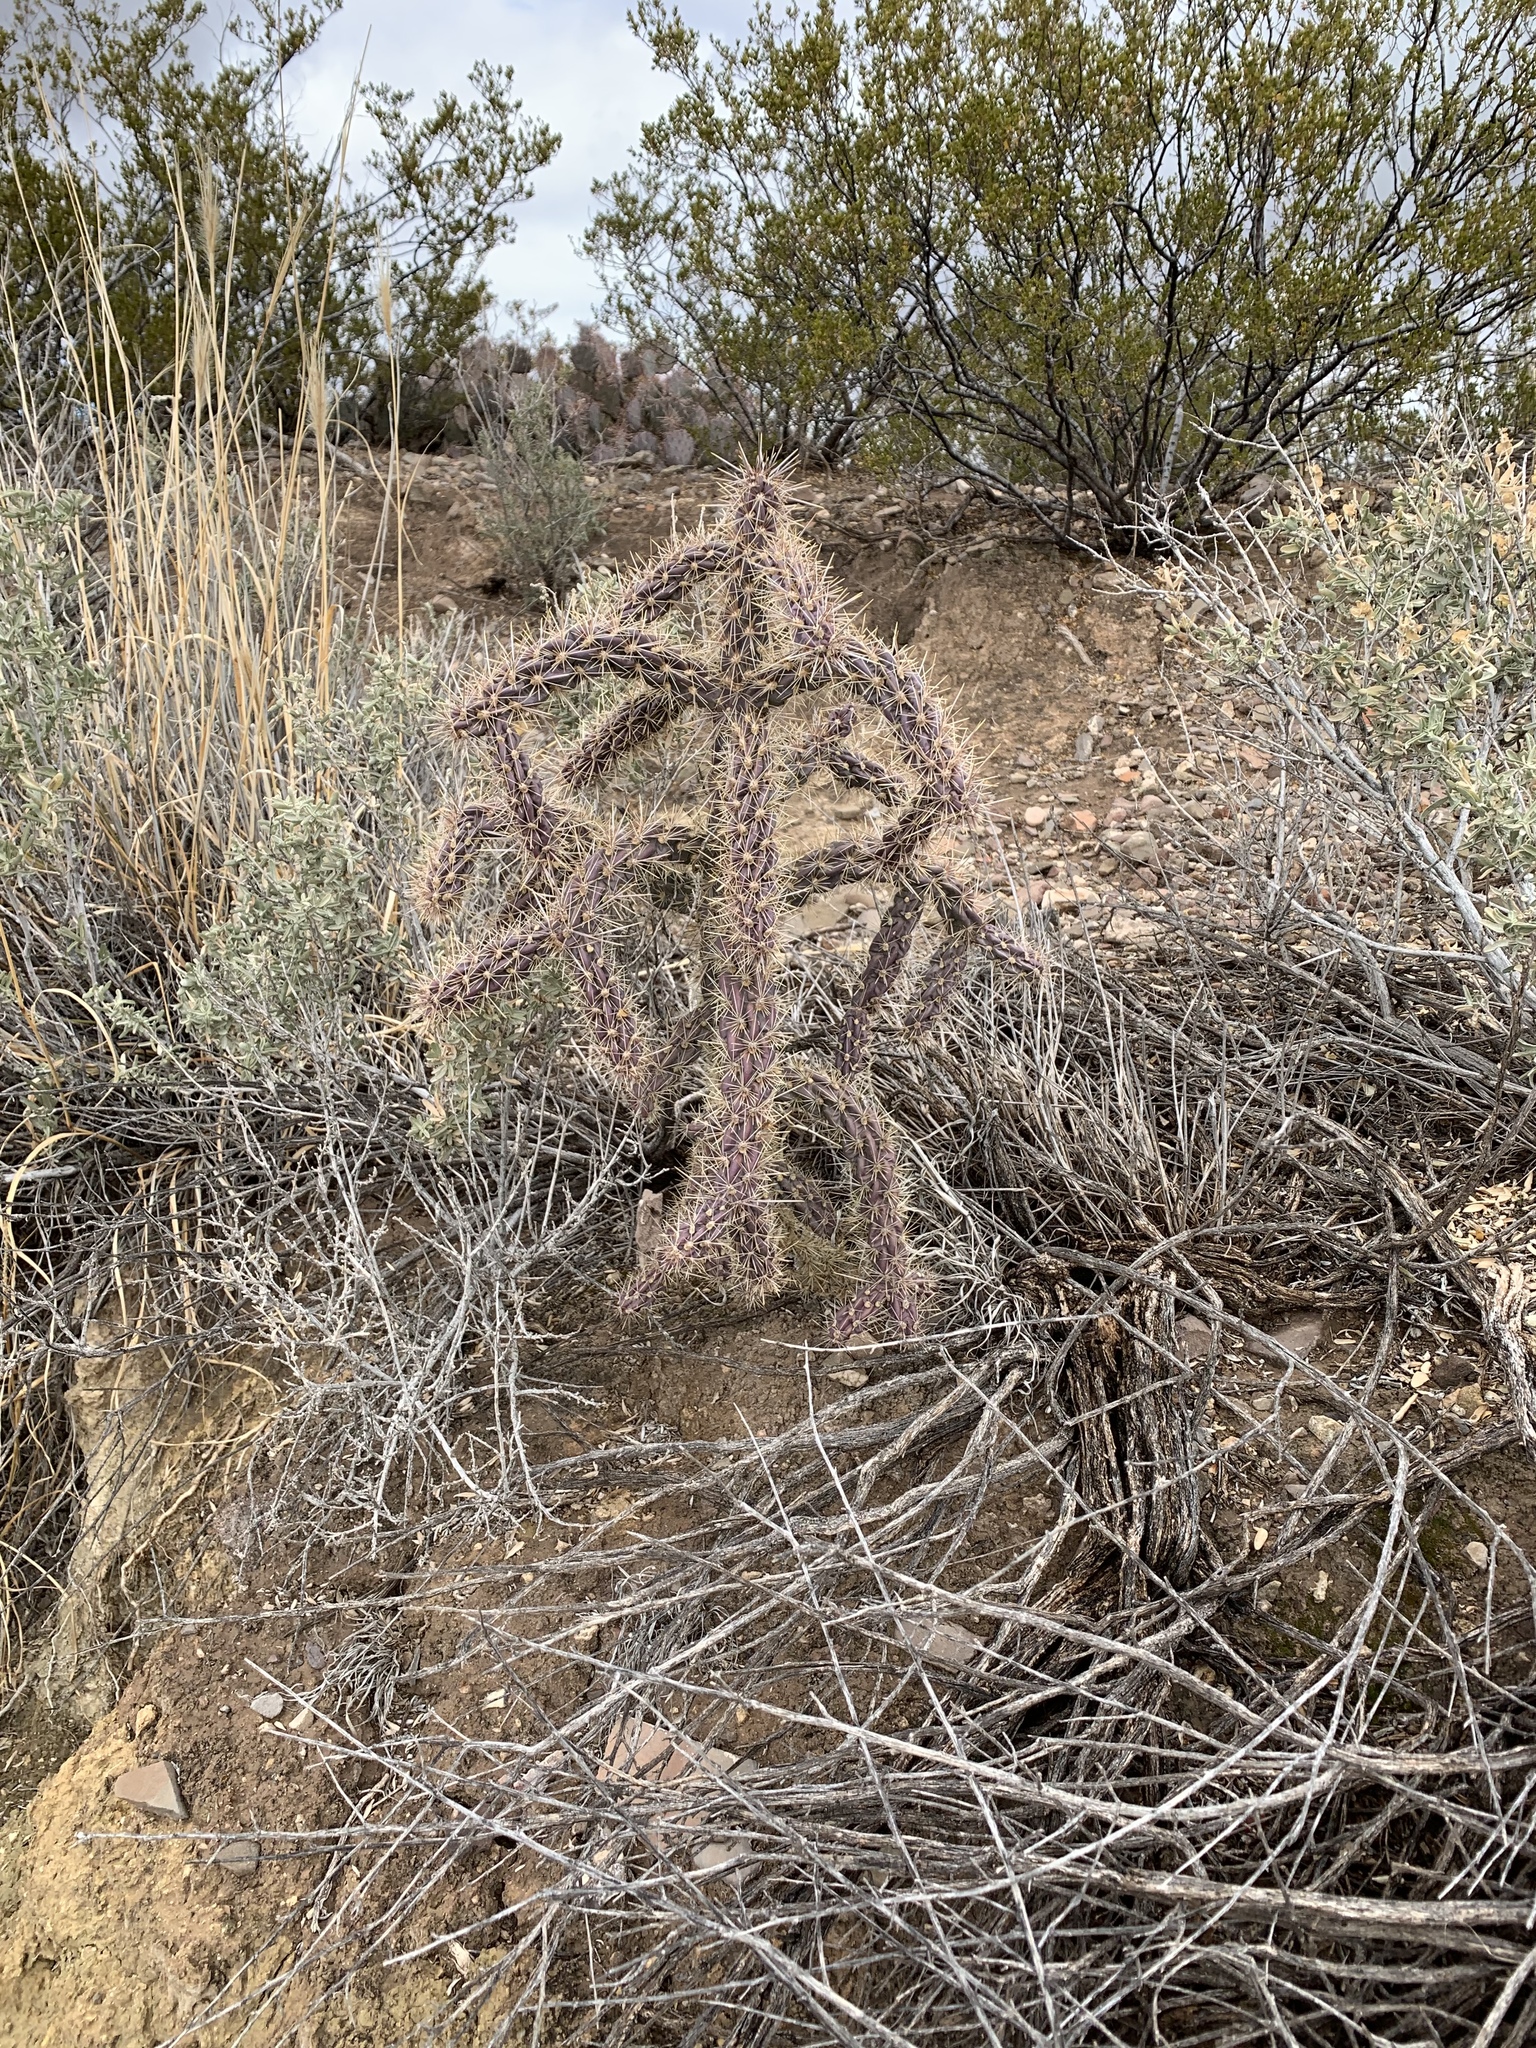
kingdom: Plantae
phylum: Tracheophyta
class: Magnoliopsida
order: Caryophyllales
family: Cactaceae
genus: Cylindropuntia
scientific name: Cylindropuntia imbricata
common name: Candelabrum cactus
